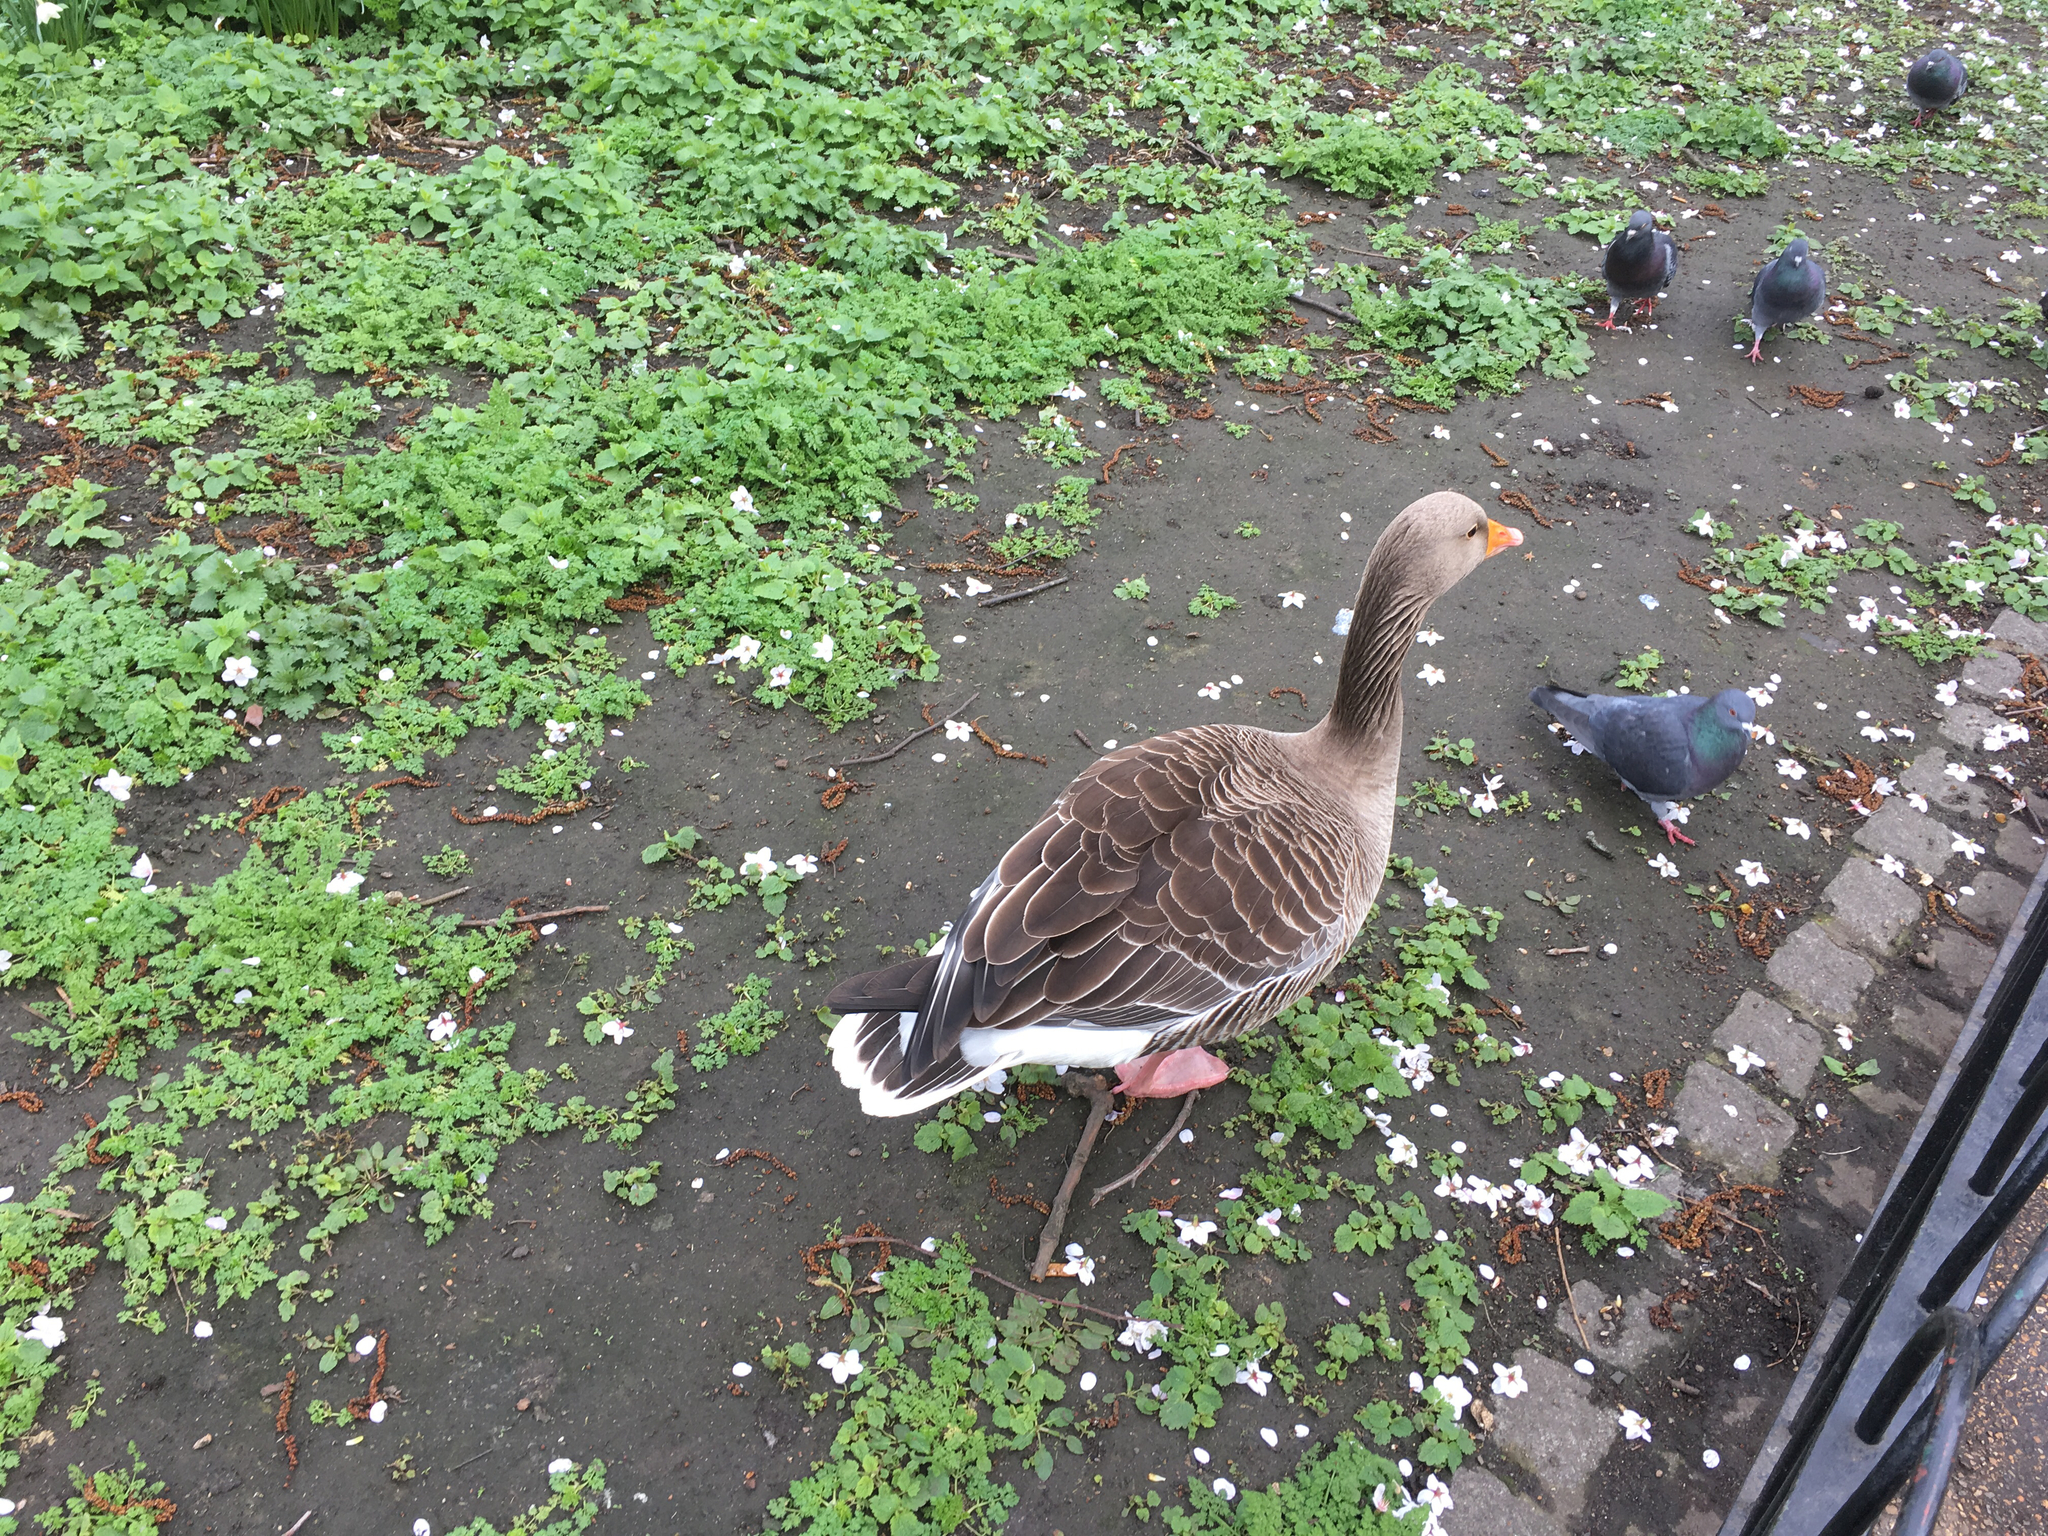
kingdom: Animalia
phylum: Chordata
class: Aves
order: Anseriformes
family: Anatidae
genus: Anser
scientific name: Anser anser
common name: Greylag goose
